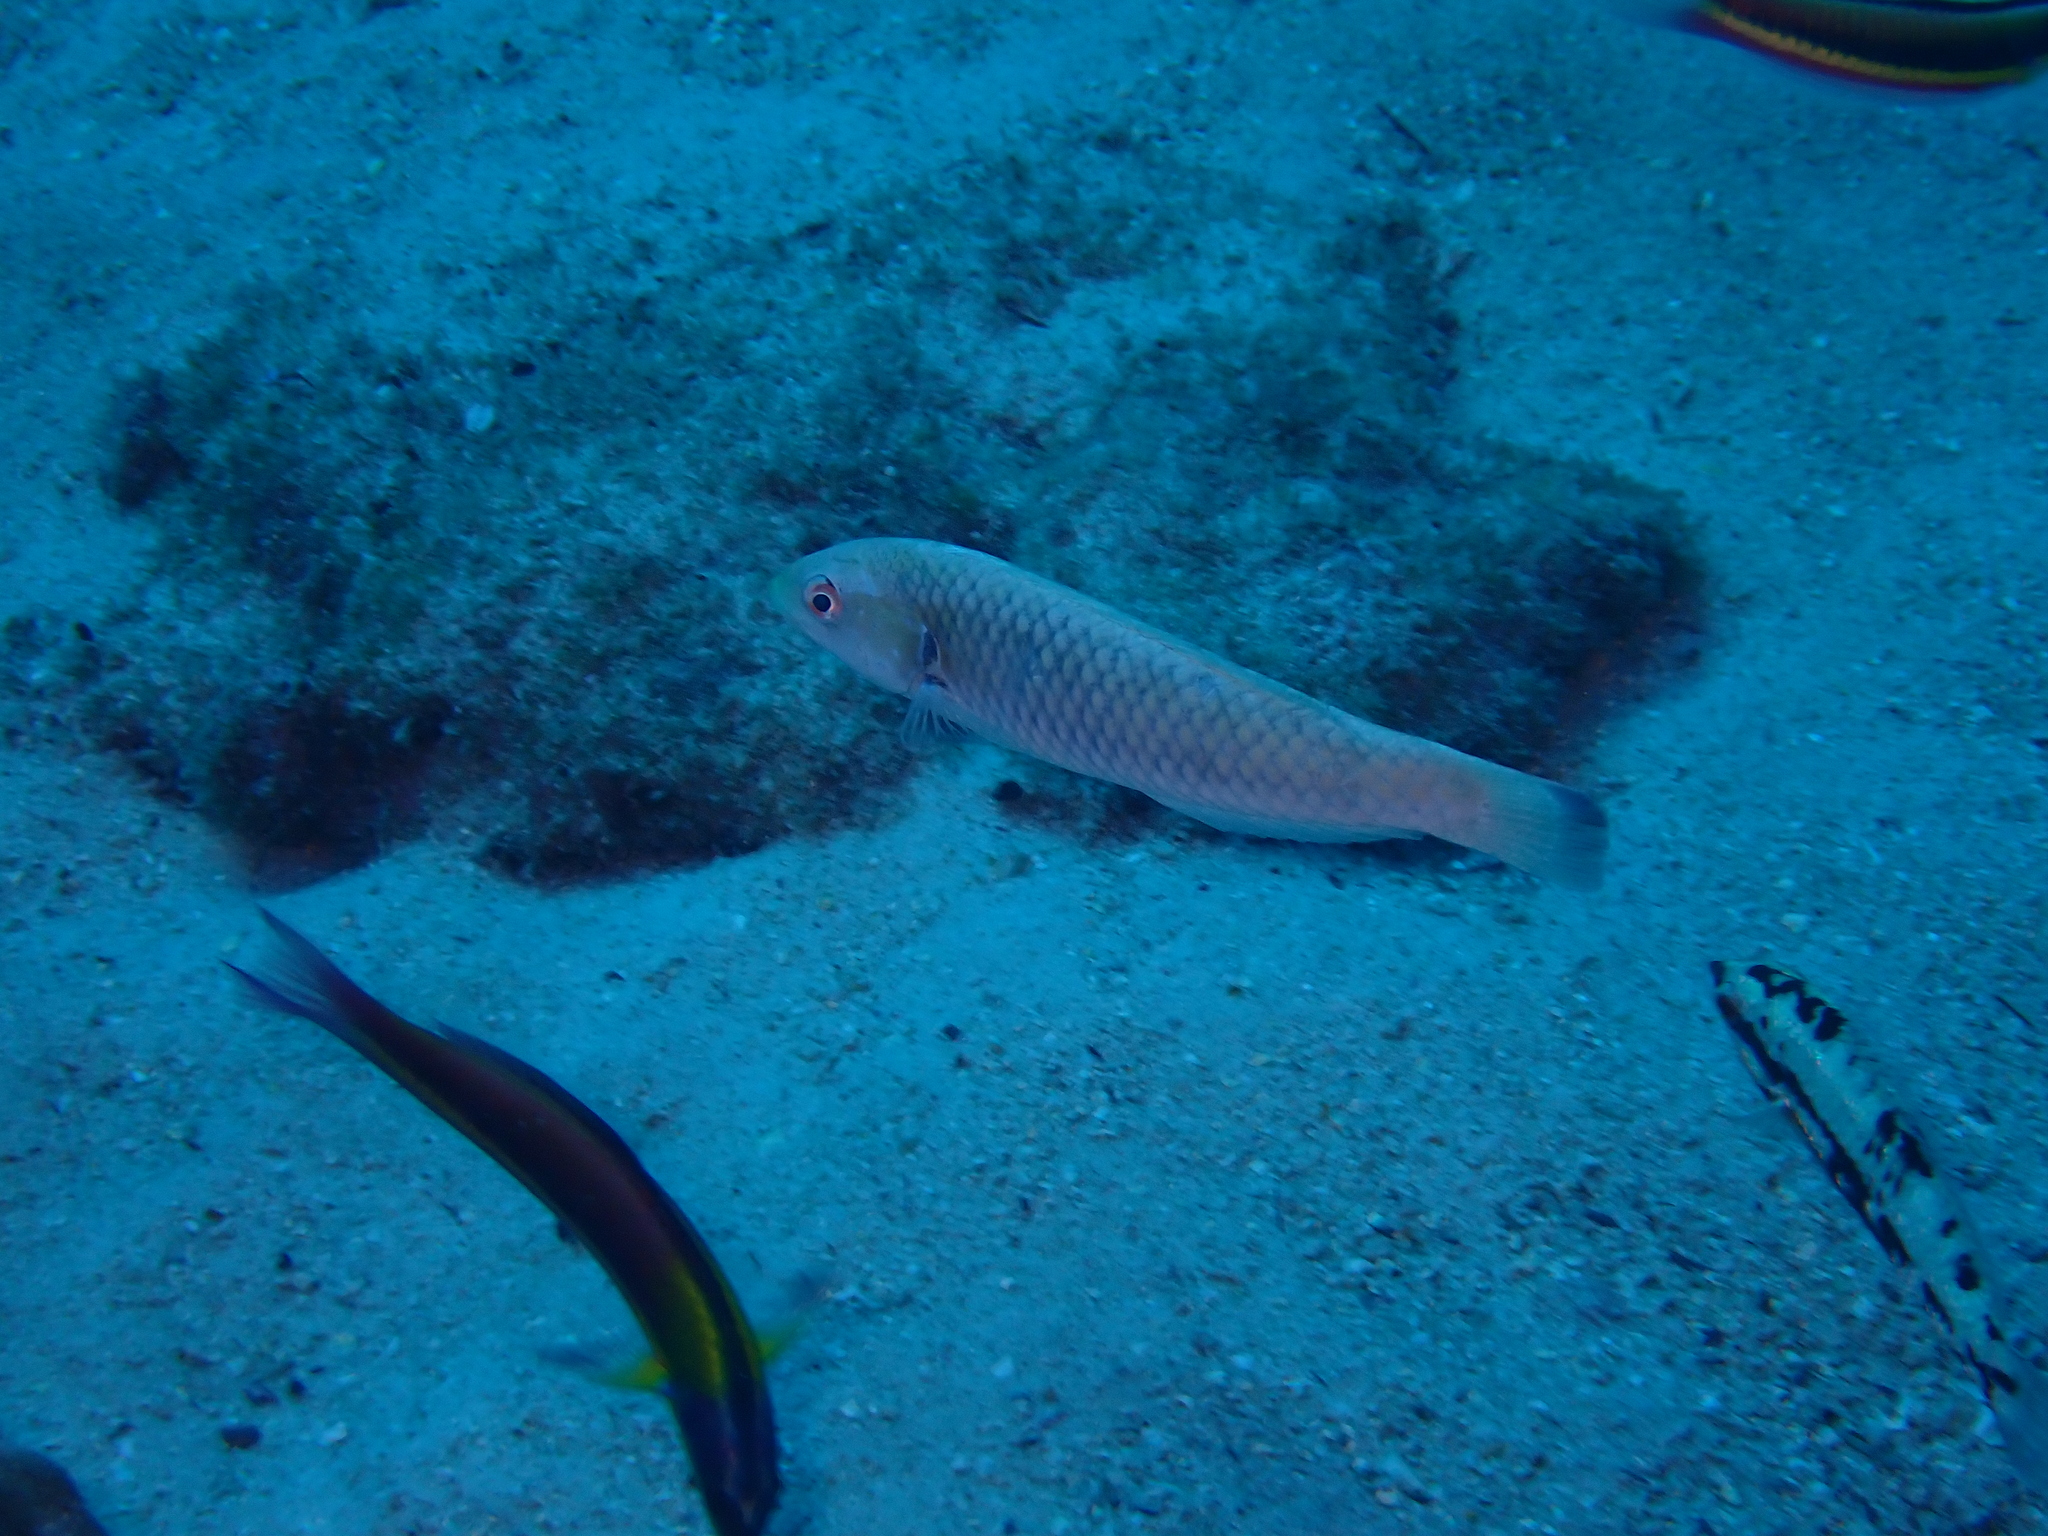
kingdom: Animalia
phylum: Chordata
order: Perciformes
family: Labridae
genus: Halichoeres
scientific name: Halichoeres salmofasciatus
